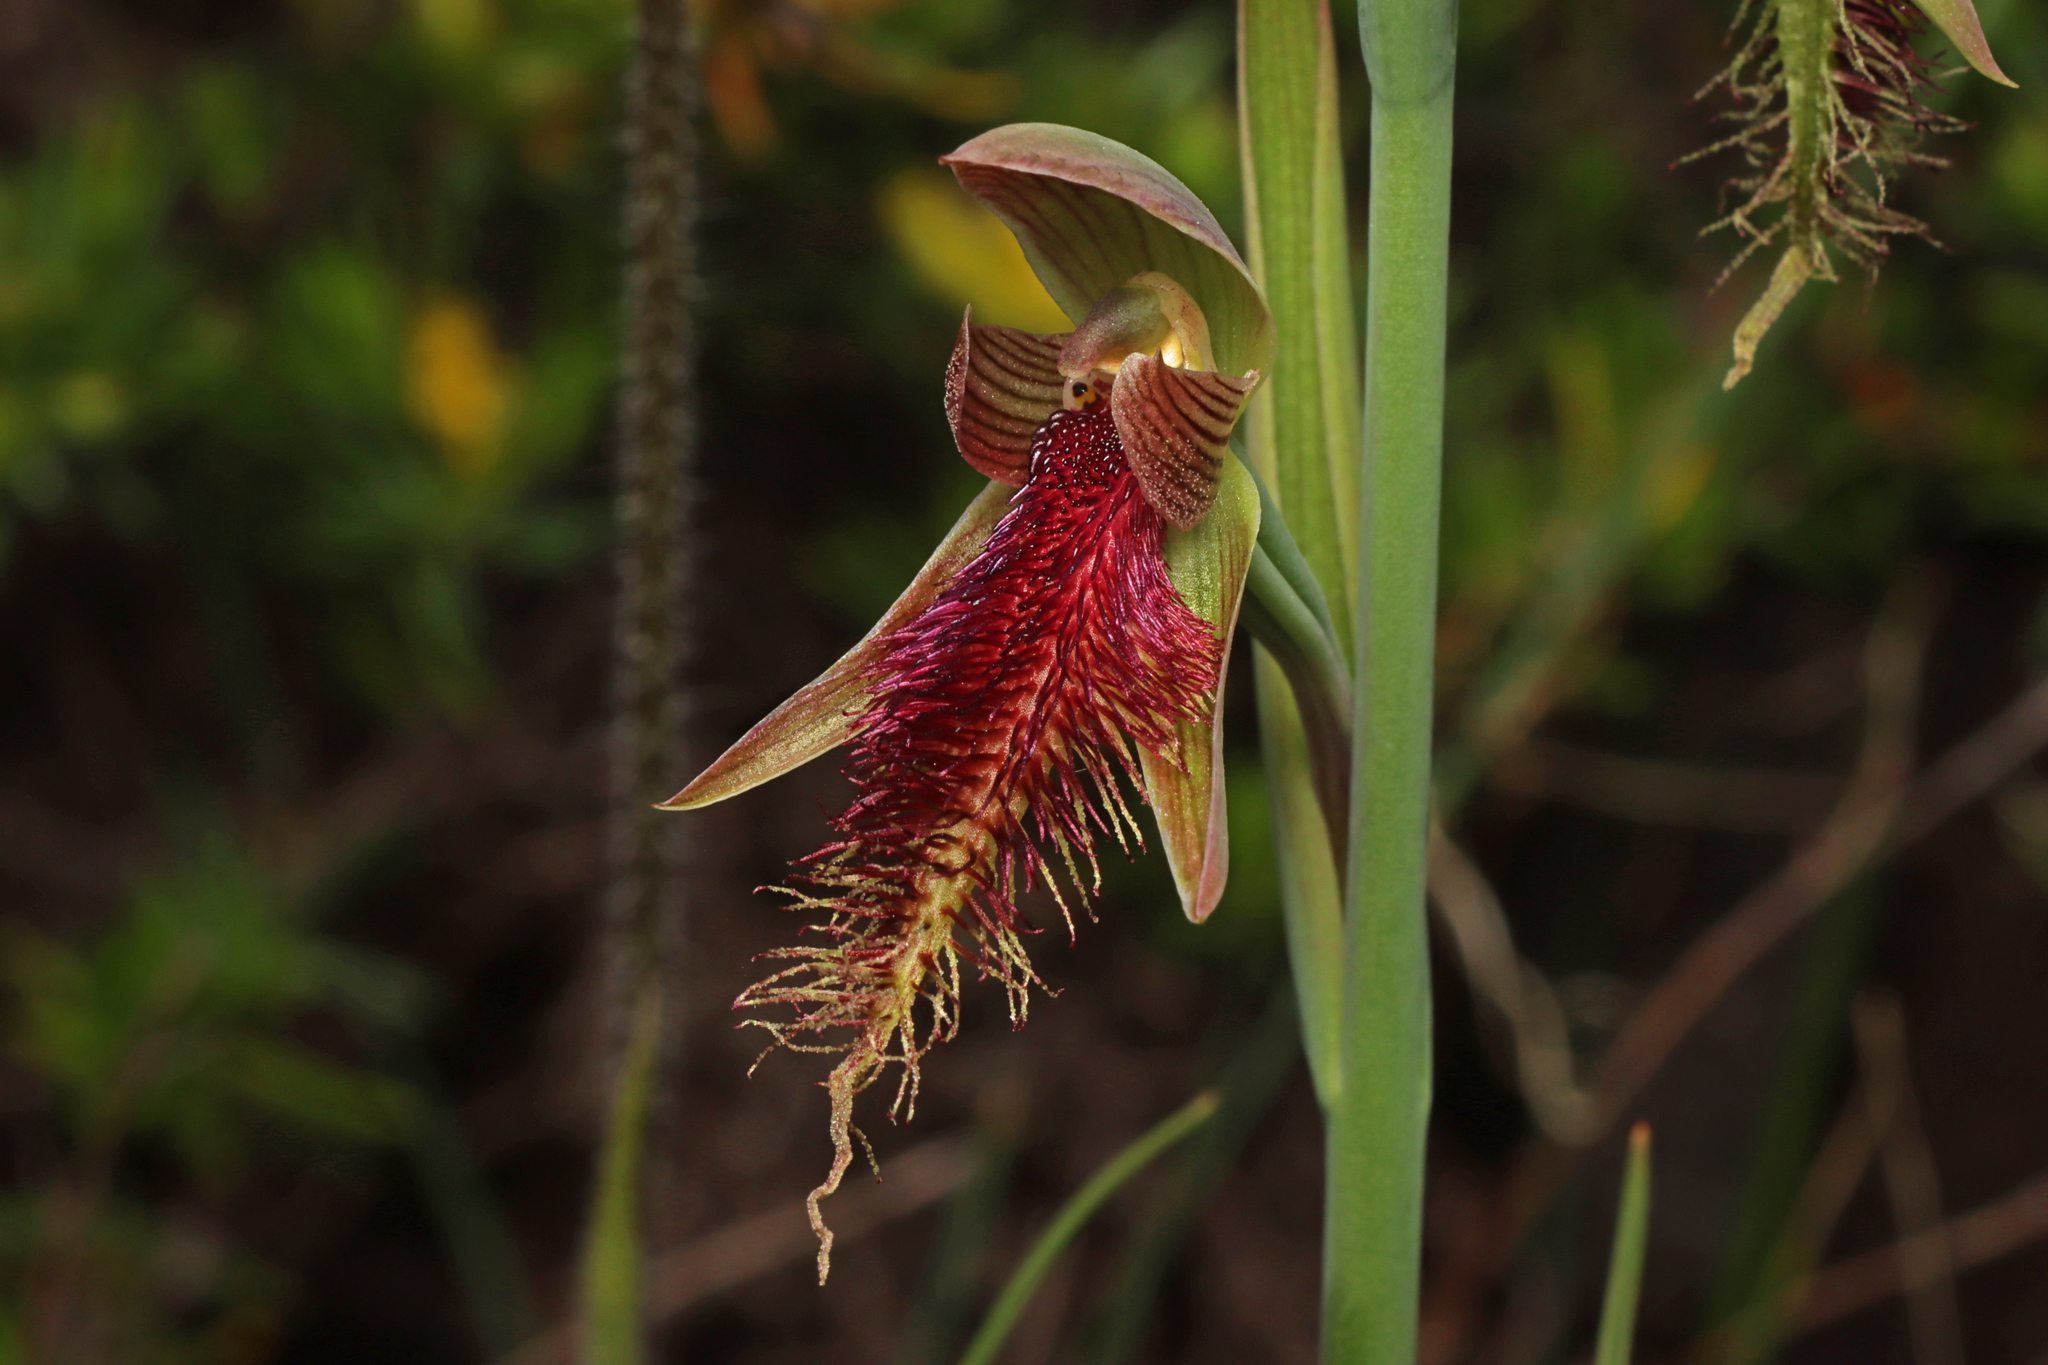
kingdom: Plantae
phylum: Tracheophyta
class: Liliopsida
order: Asparagales
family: Orchidaceae
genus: Calochilus
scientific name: Calochilus robertsonii
